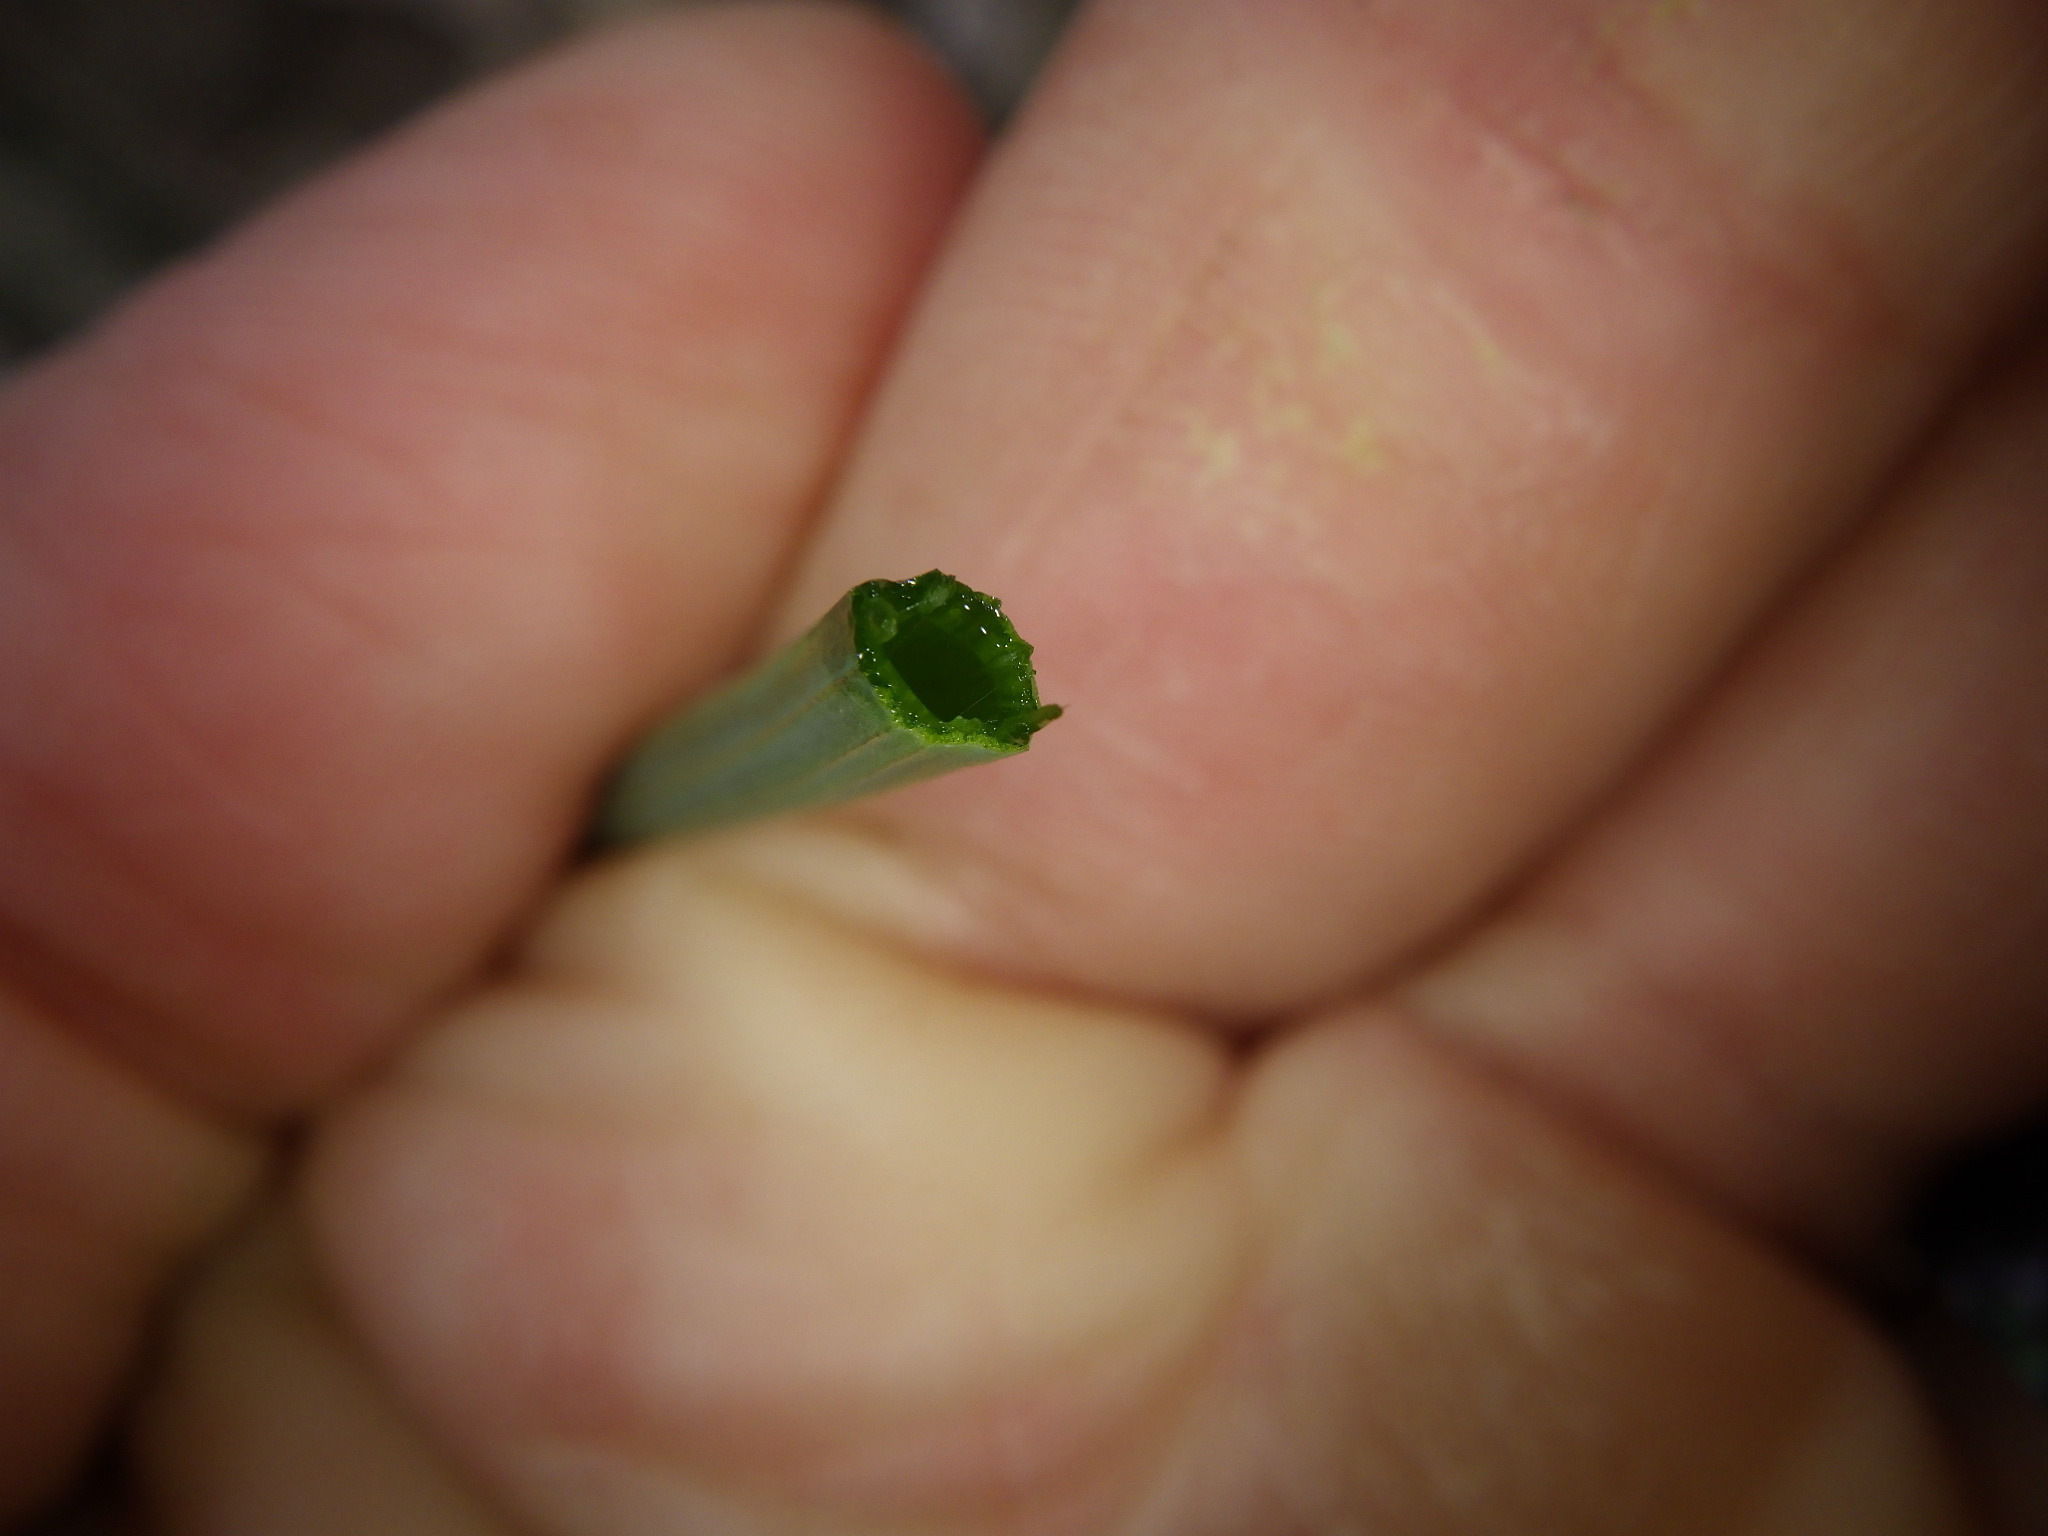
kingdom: Plantae
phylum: Tracheophyta
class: Liliopsida
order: Asparagales
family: Amaryllidaceae
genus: Allium
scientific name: Allium vineale
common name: Crow garlic
